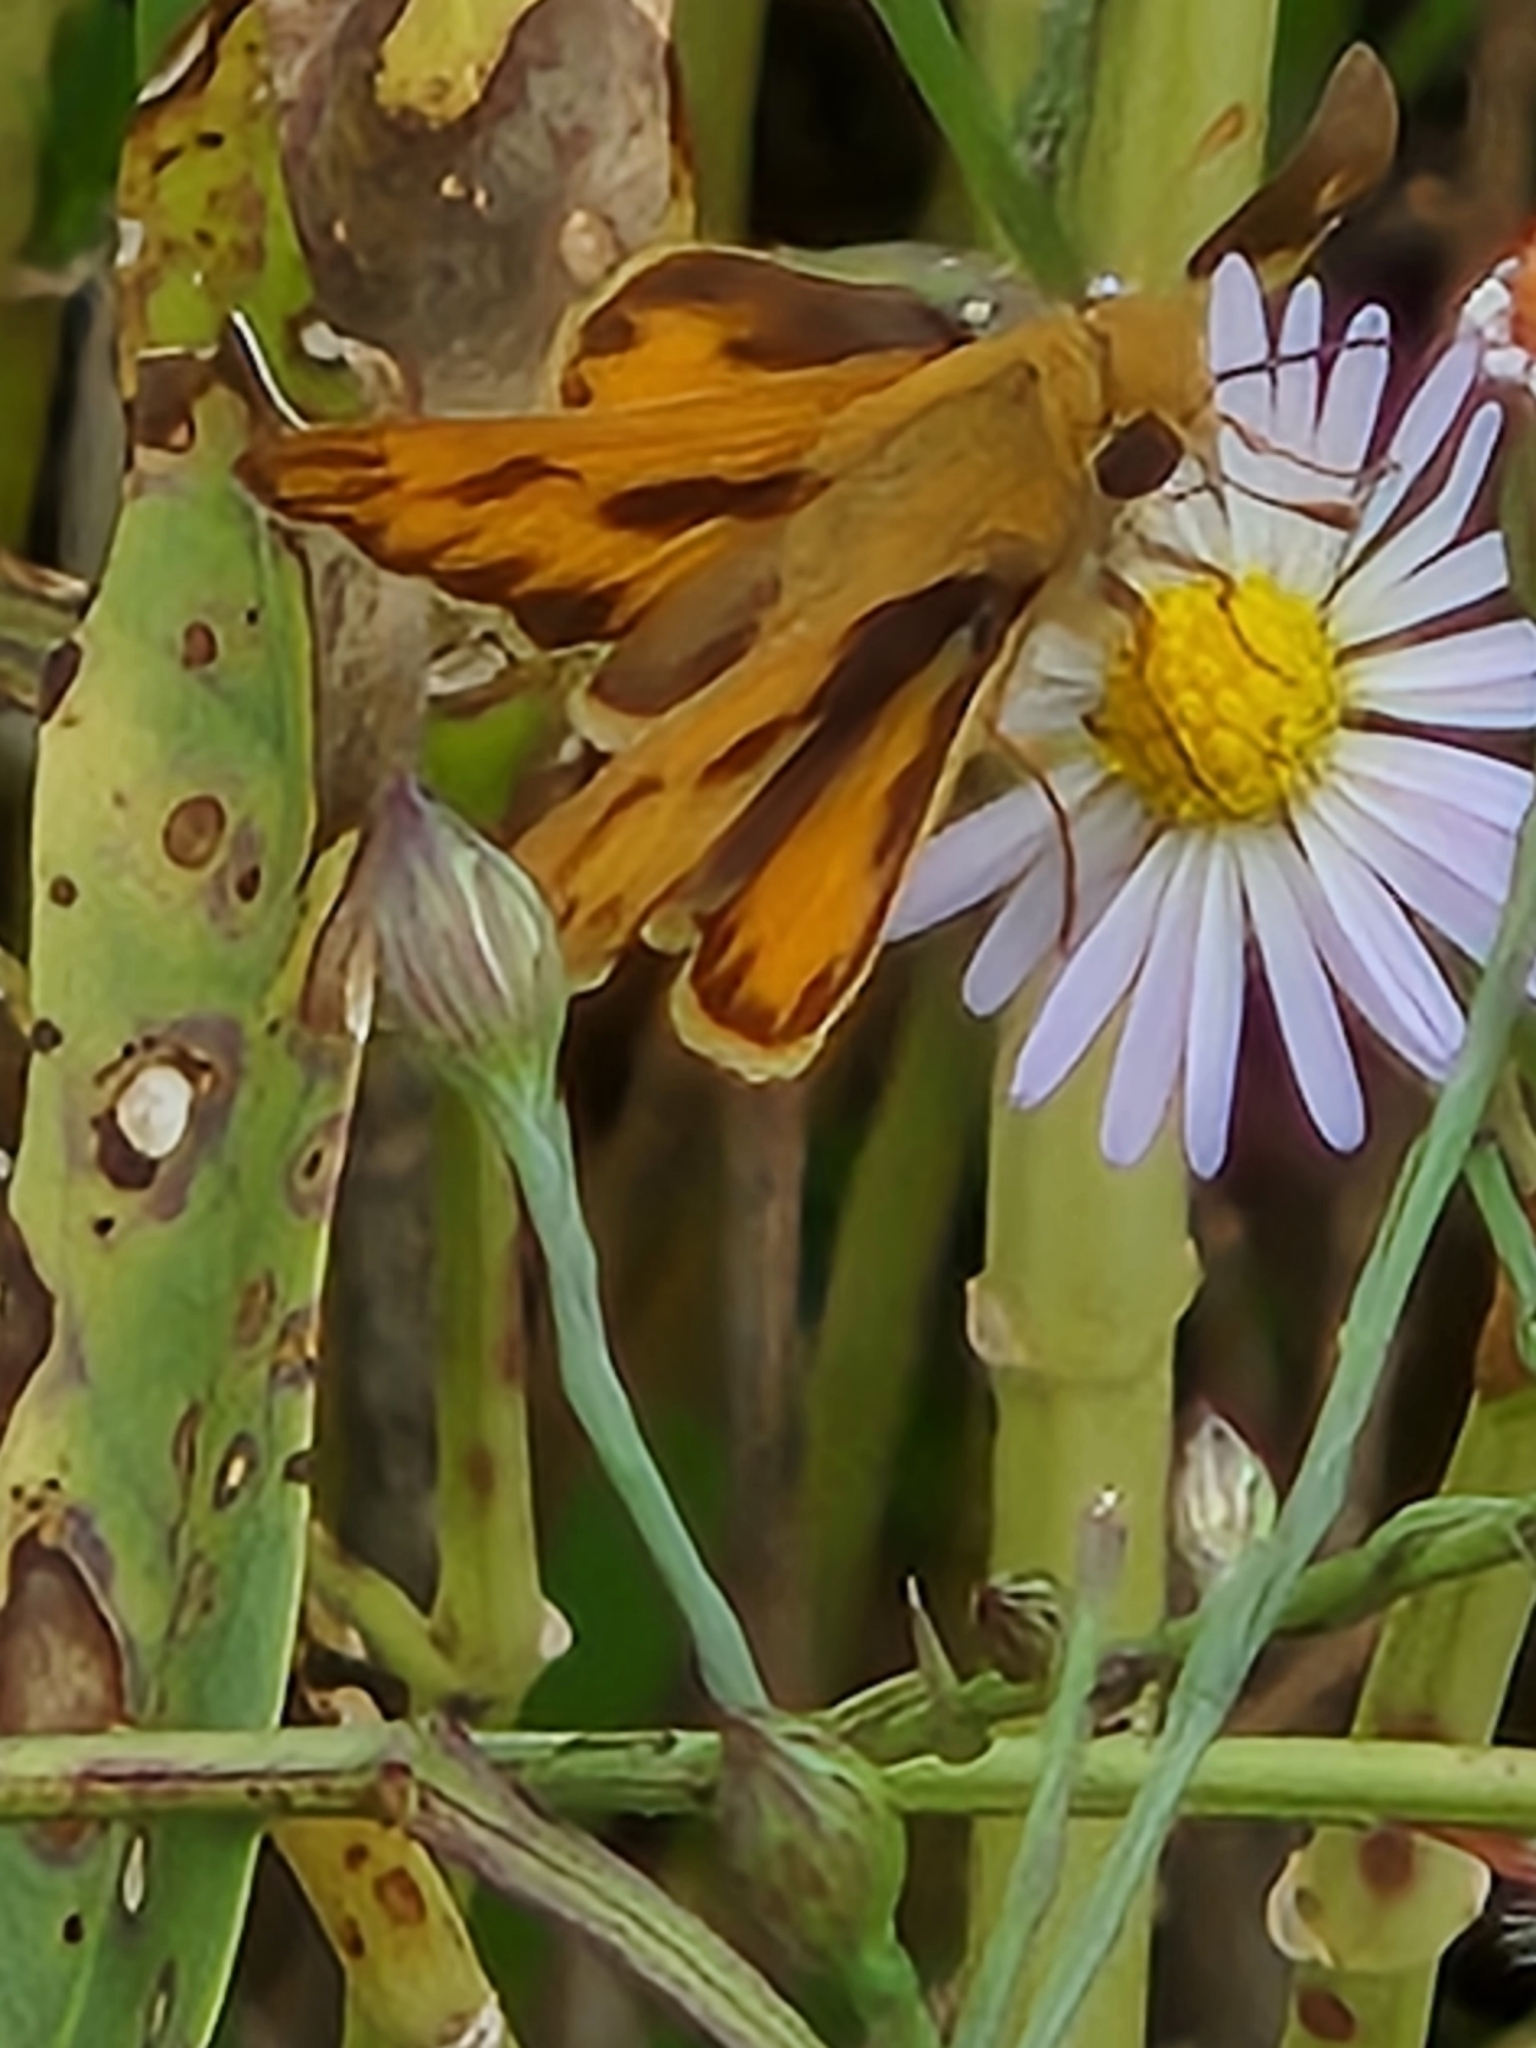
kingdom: Animalia
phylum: Arthropoda
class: Insecta
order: Lepidoptera
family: Hesperiidae
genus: Hylephila
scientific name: Hylephila phyleus
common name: Fiery skipper
